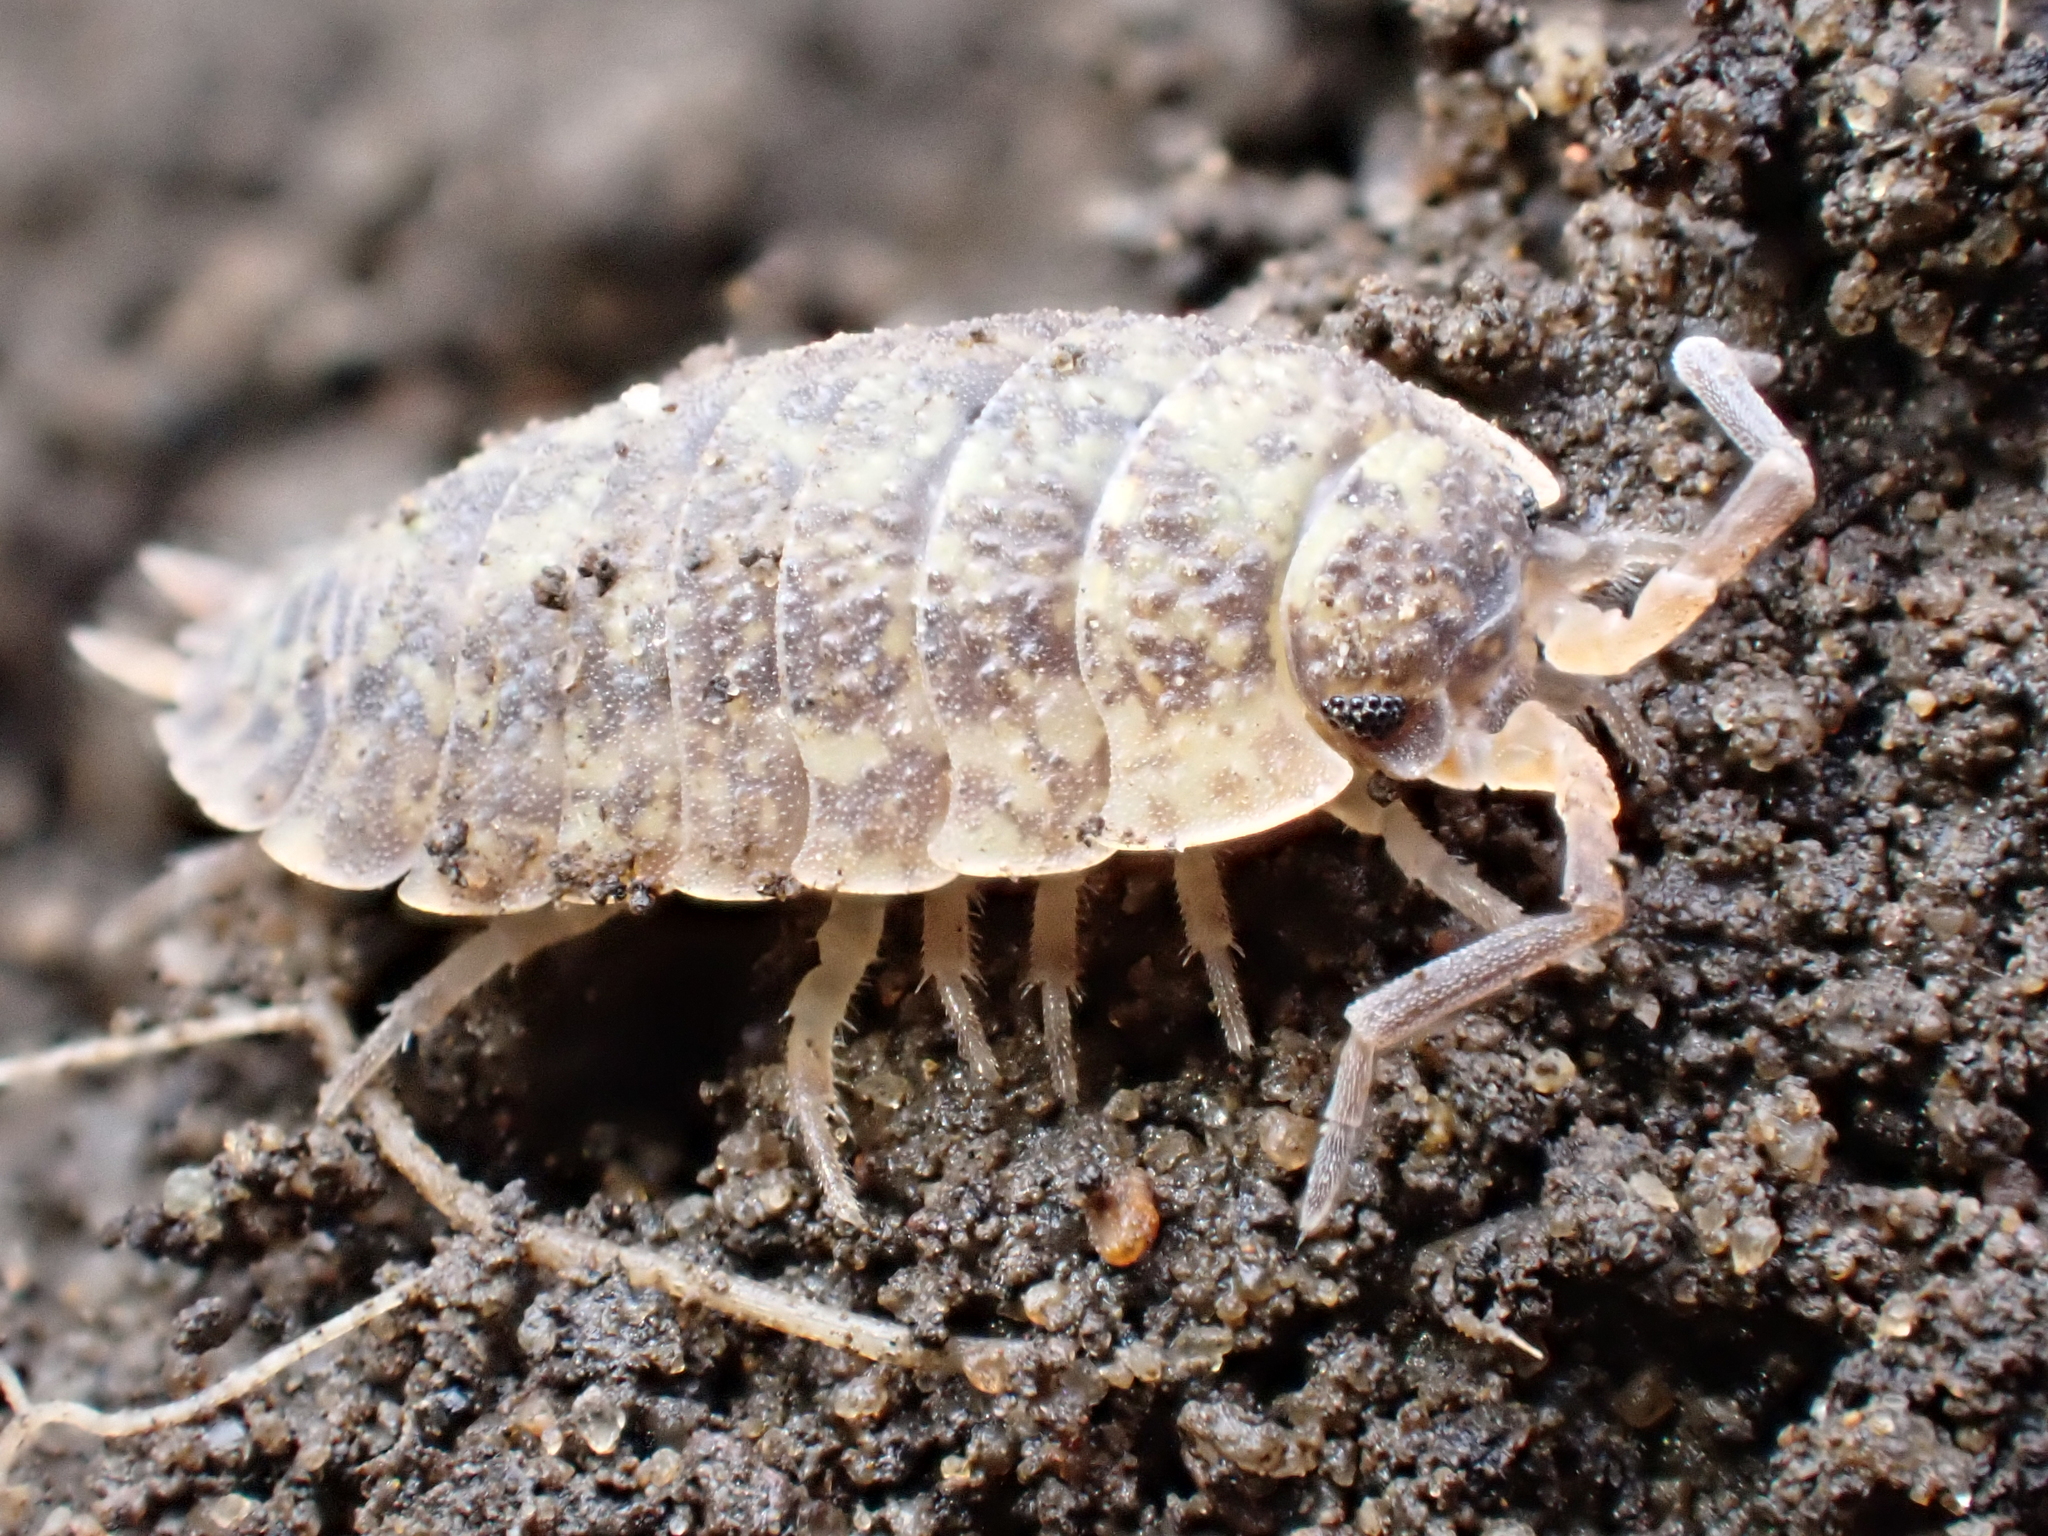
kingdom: Animalia
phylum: Arthropoda
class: Malacostraca
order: Isopoda
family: Porcellionidae
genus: Porcellio
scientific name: Porcellio scaber
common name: Common rough woodlouse
